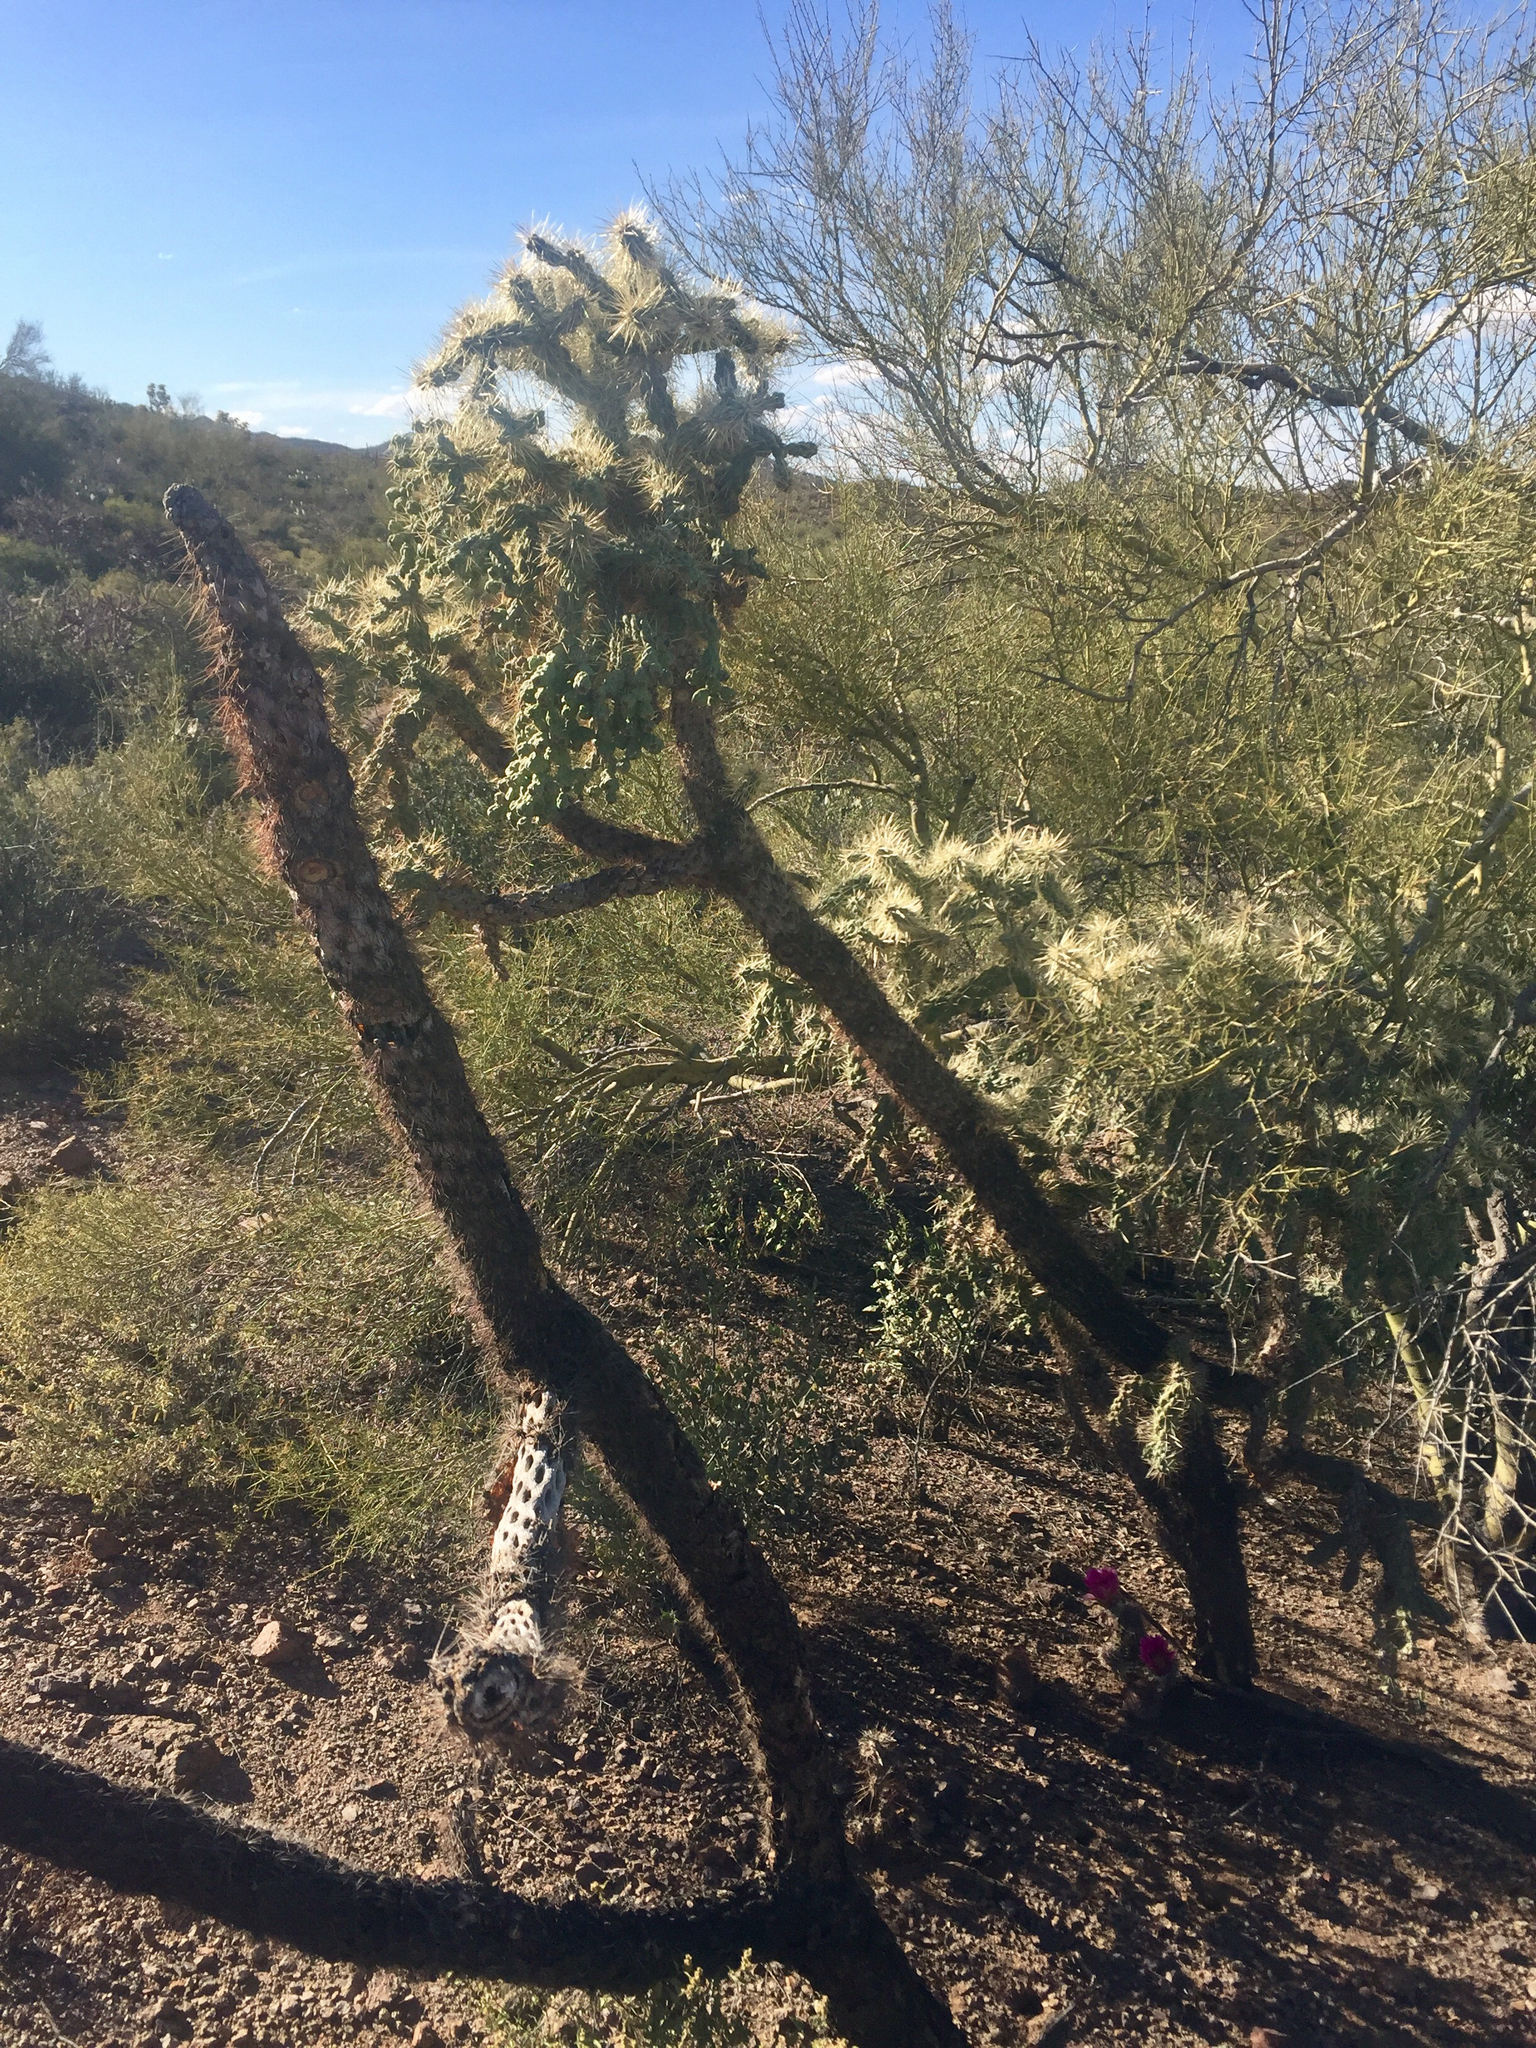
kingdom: Plantae
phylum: Tracheophyta
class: Magnoliopsida
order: Caryophyllales
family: Cactaceae
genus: Cylindropuntia
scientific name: Cylindropuntia fulgida
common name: Jumping cholla
